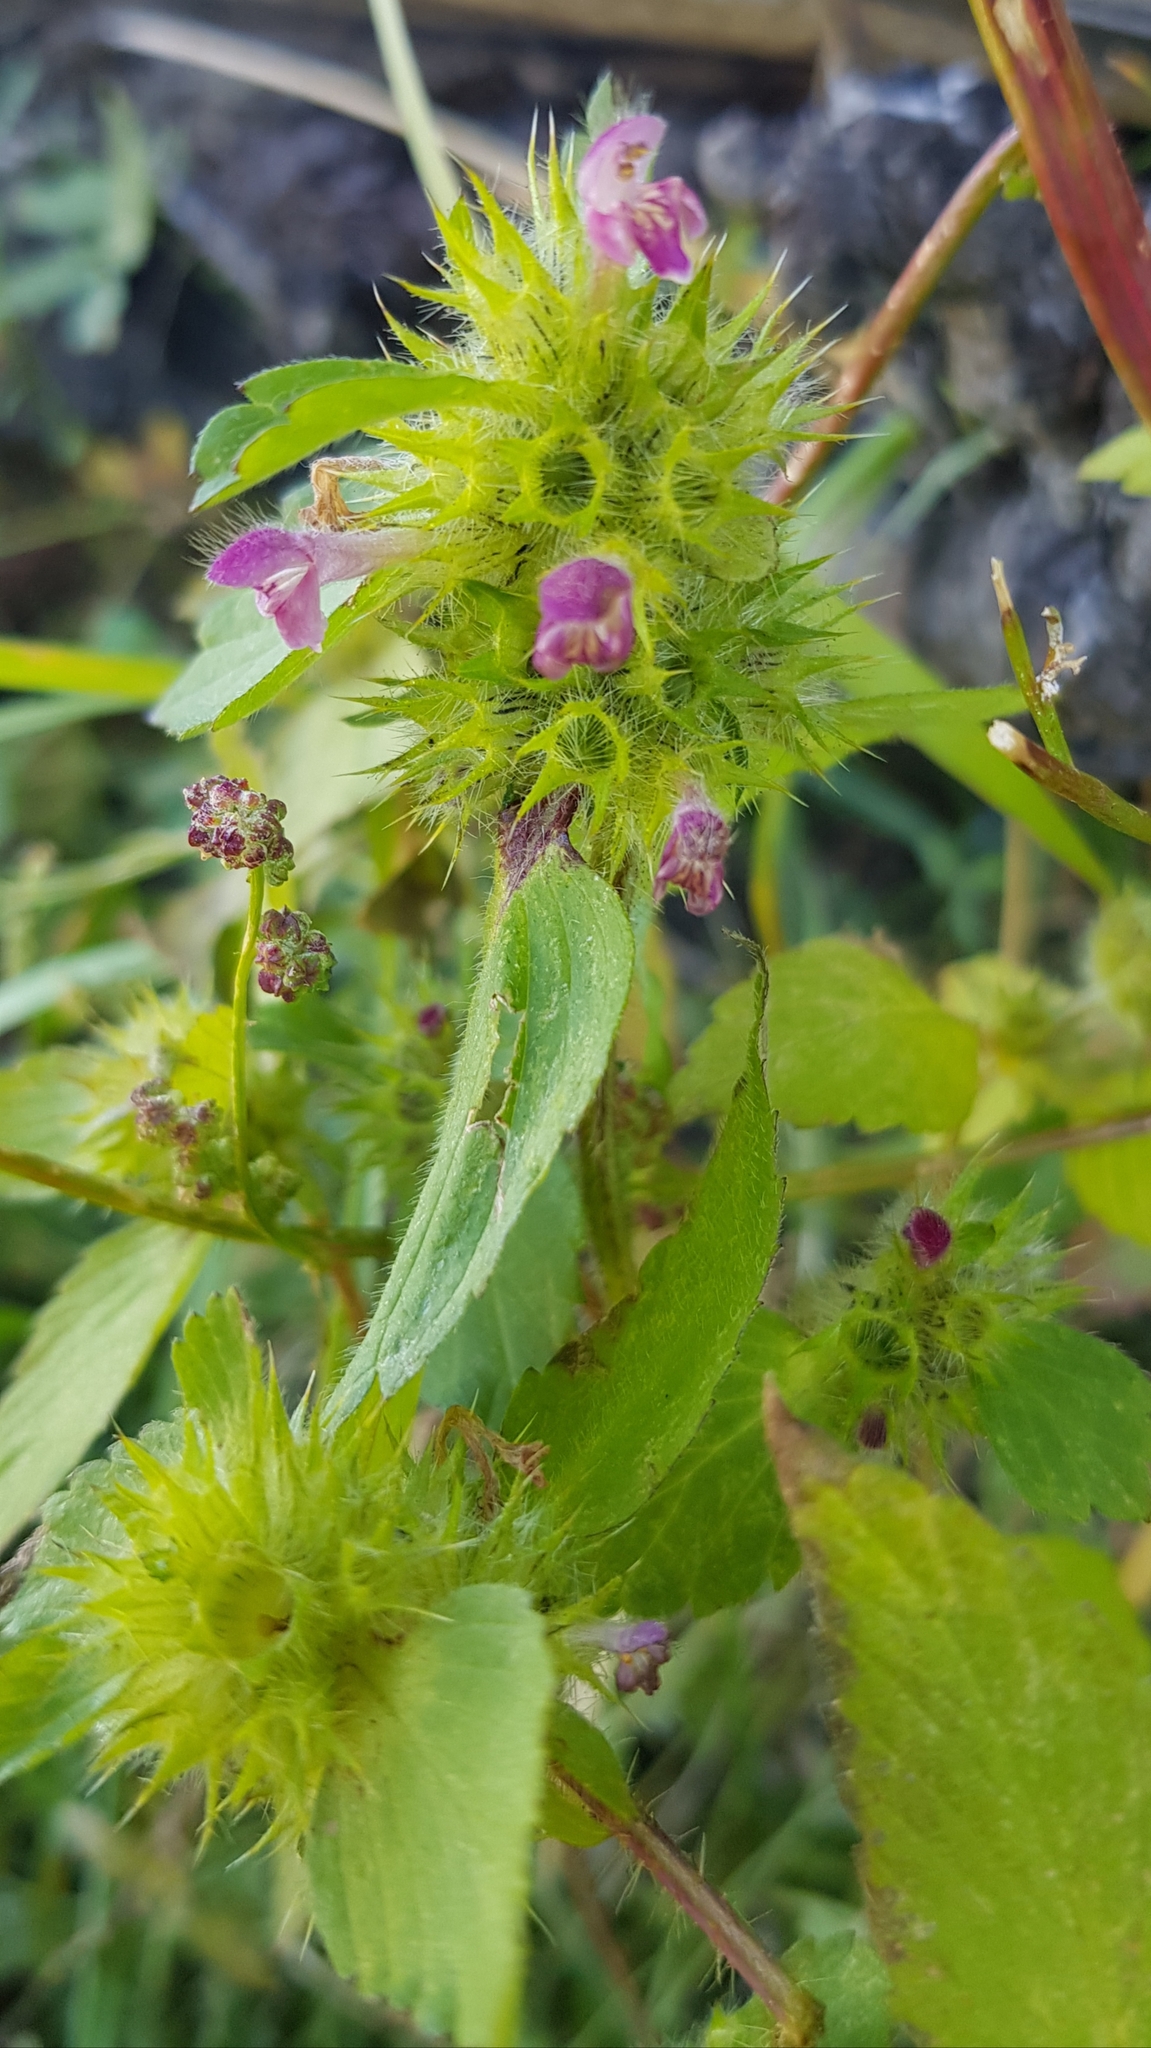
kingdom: Plantae
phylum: Tracheophyta
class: Magnoliopsida
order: Lamiales
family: Lamiaceae
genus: Galeopsis
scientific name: Galeopsis bifida
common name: Bifid hemp-nettle
